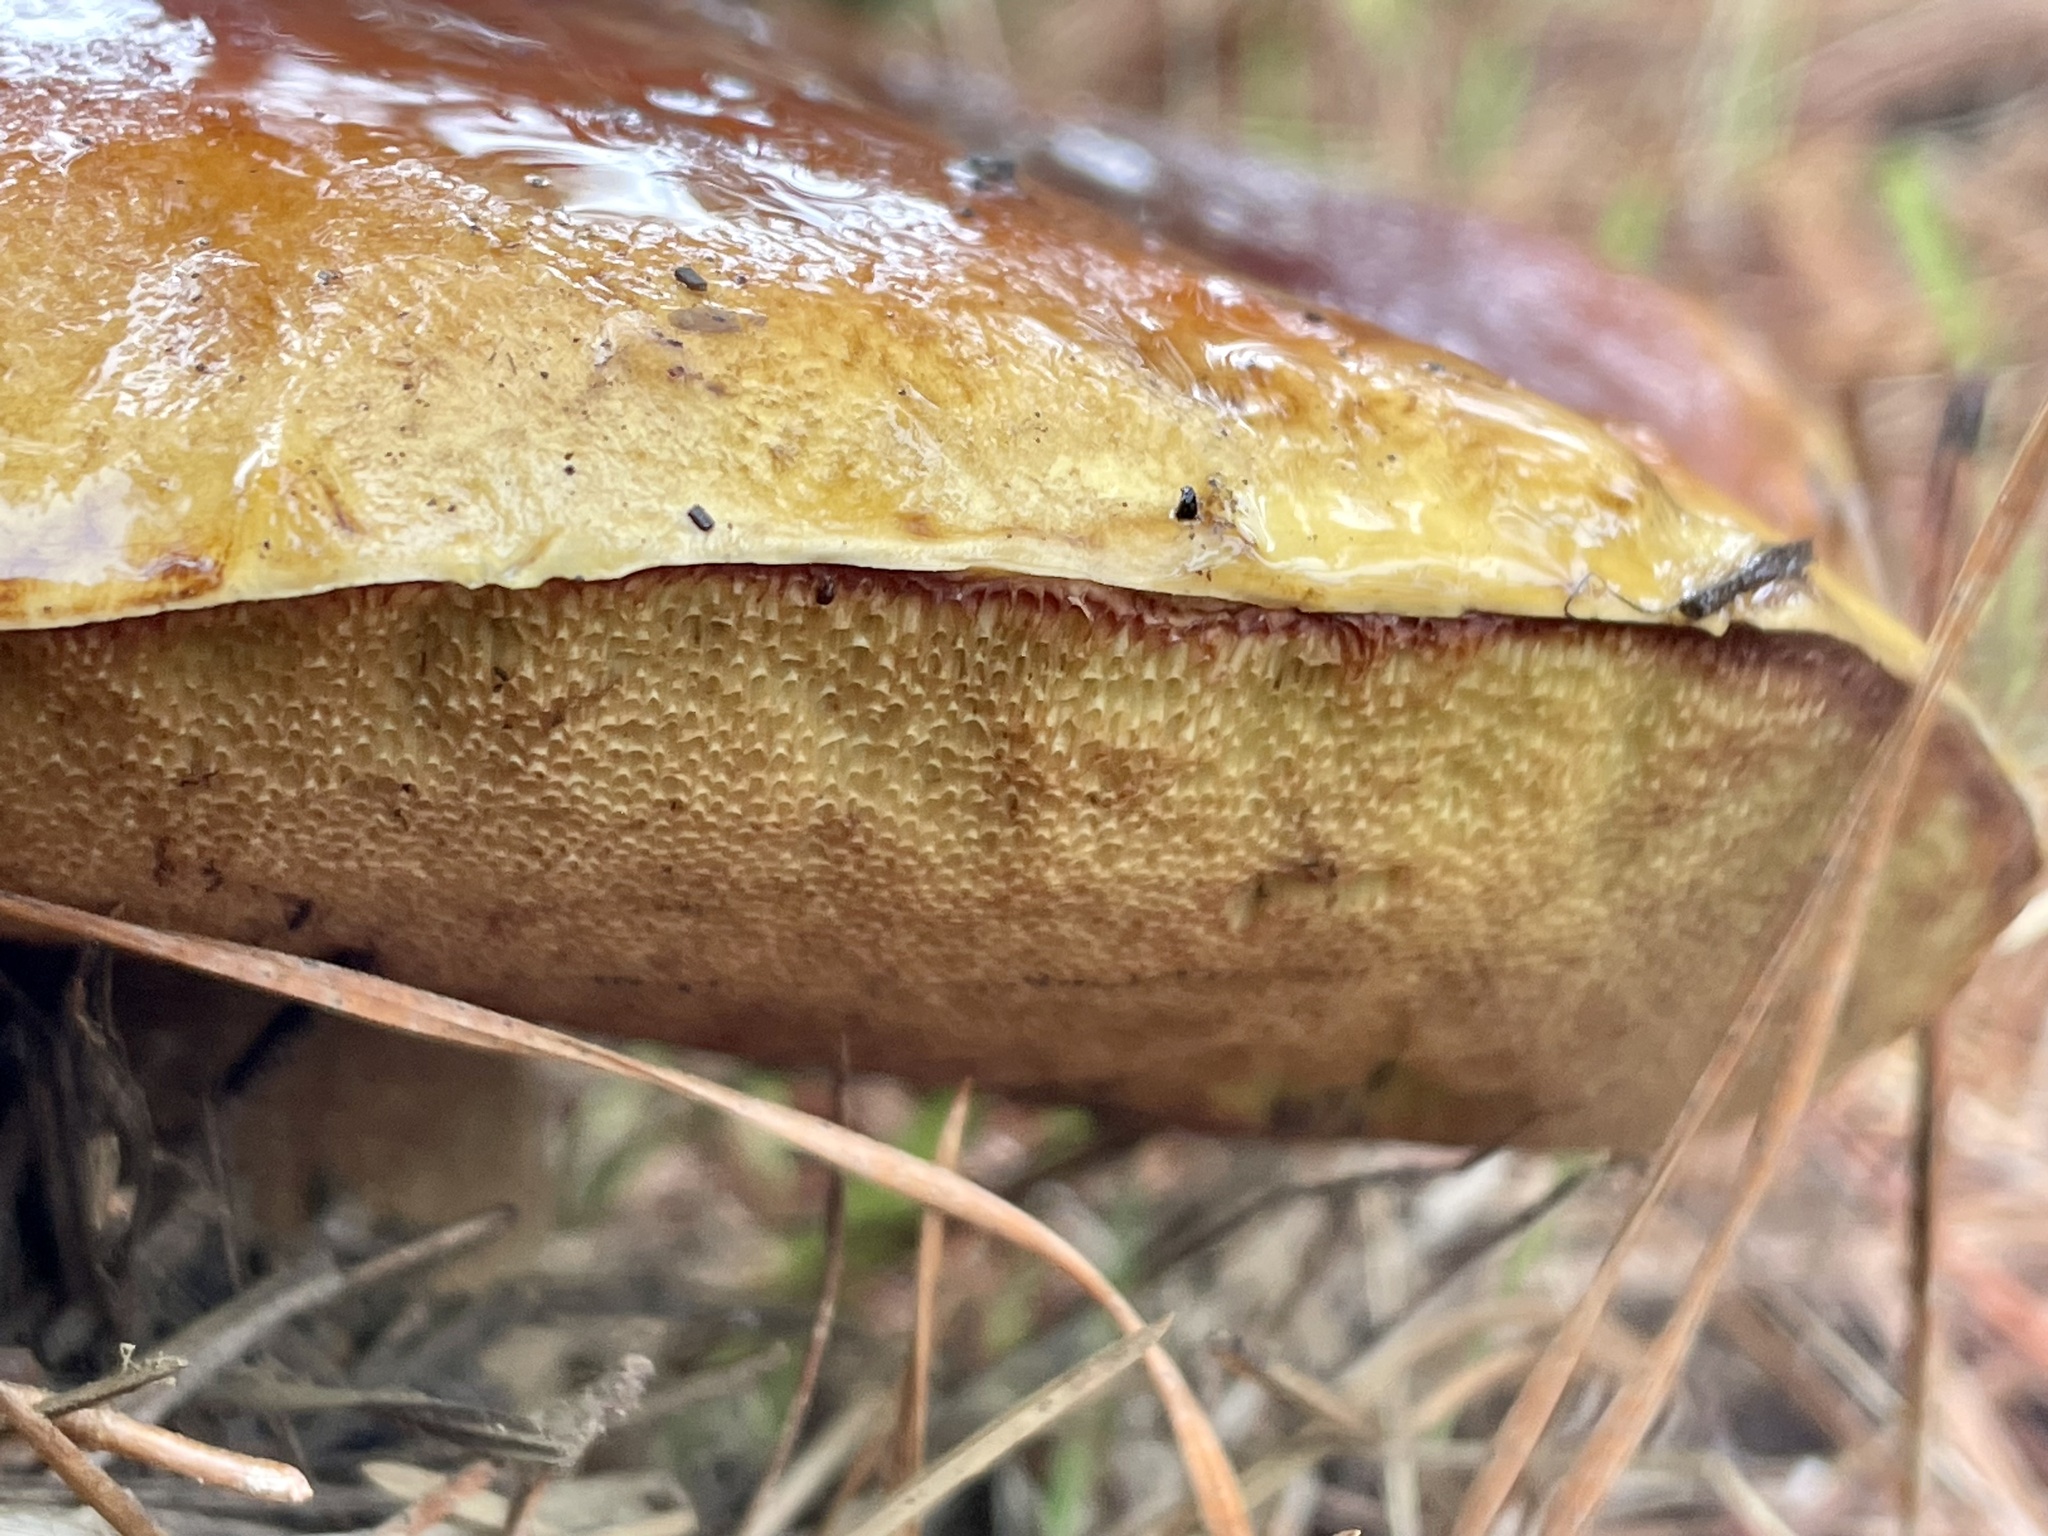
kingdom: Fungi
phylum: Basidiomycota
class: Agaricomycetes
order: Boletales
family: Boletaceae
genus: Boletus
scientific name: Boletus edulis
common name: Cep
